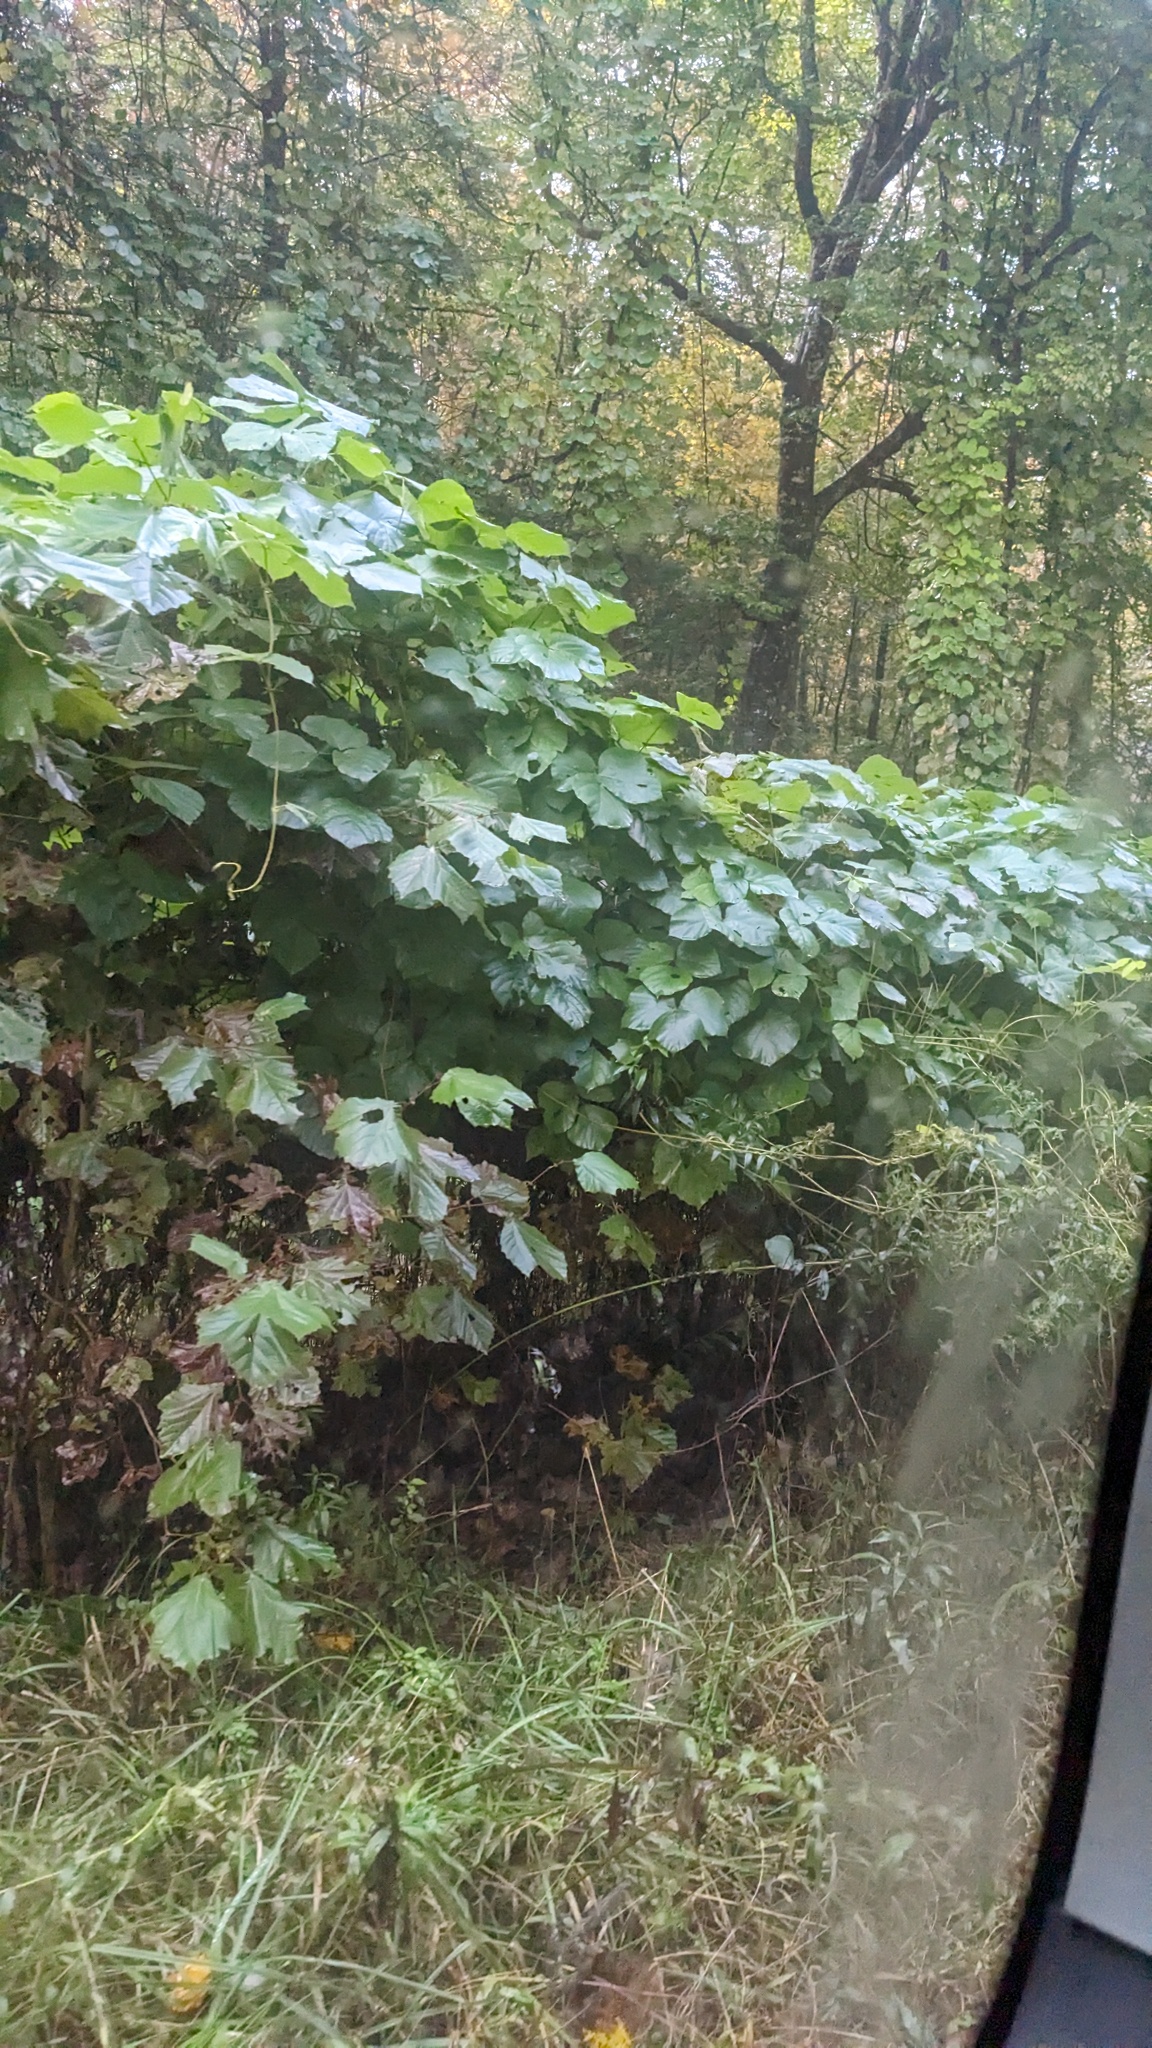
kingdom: Plantae
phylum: Tracheophyta
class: Magnoliopsida
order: Fabales
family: Fabaceae
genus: Pueraria
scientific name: Pueraria montana
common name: Kudzu
